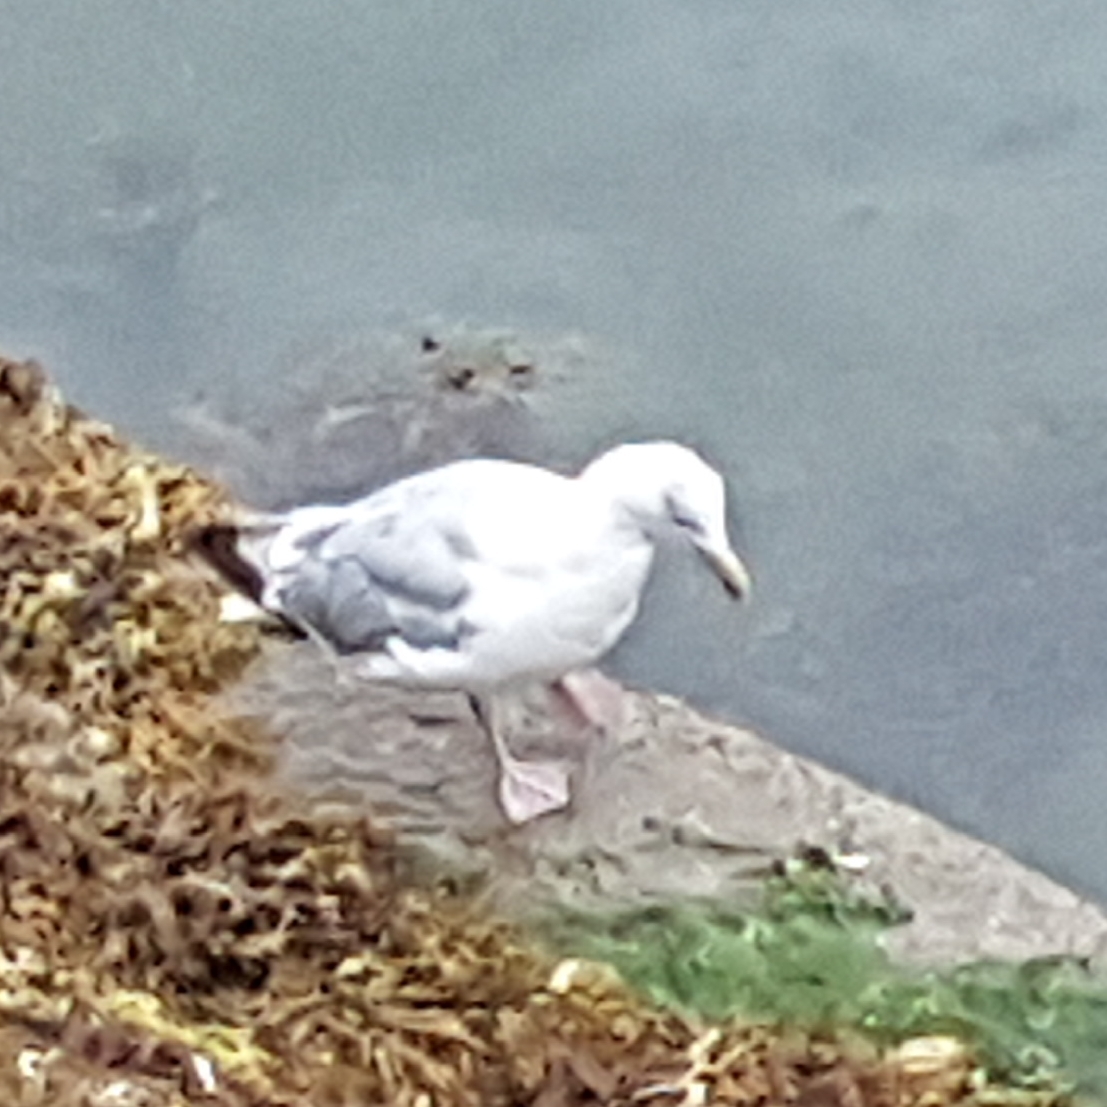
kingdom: Animalia
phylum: Chordata
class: Aves
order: Charadriiformes
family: Laridae
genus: Larus
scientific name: Larus argentatus
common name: Herring gull
